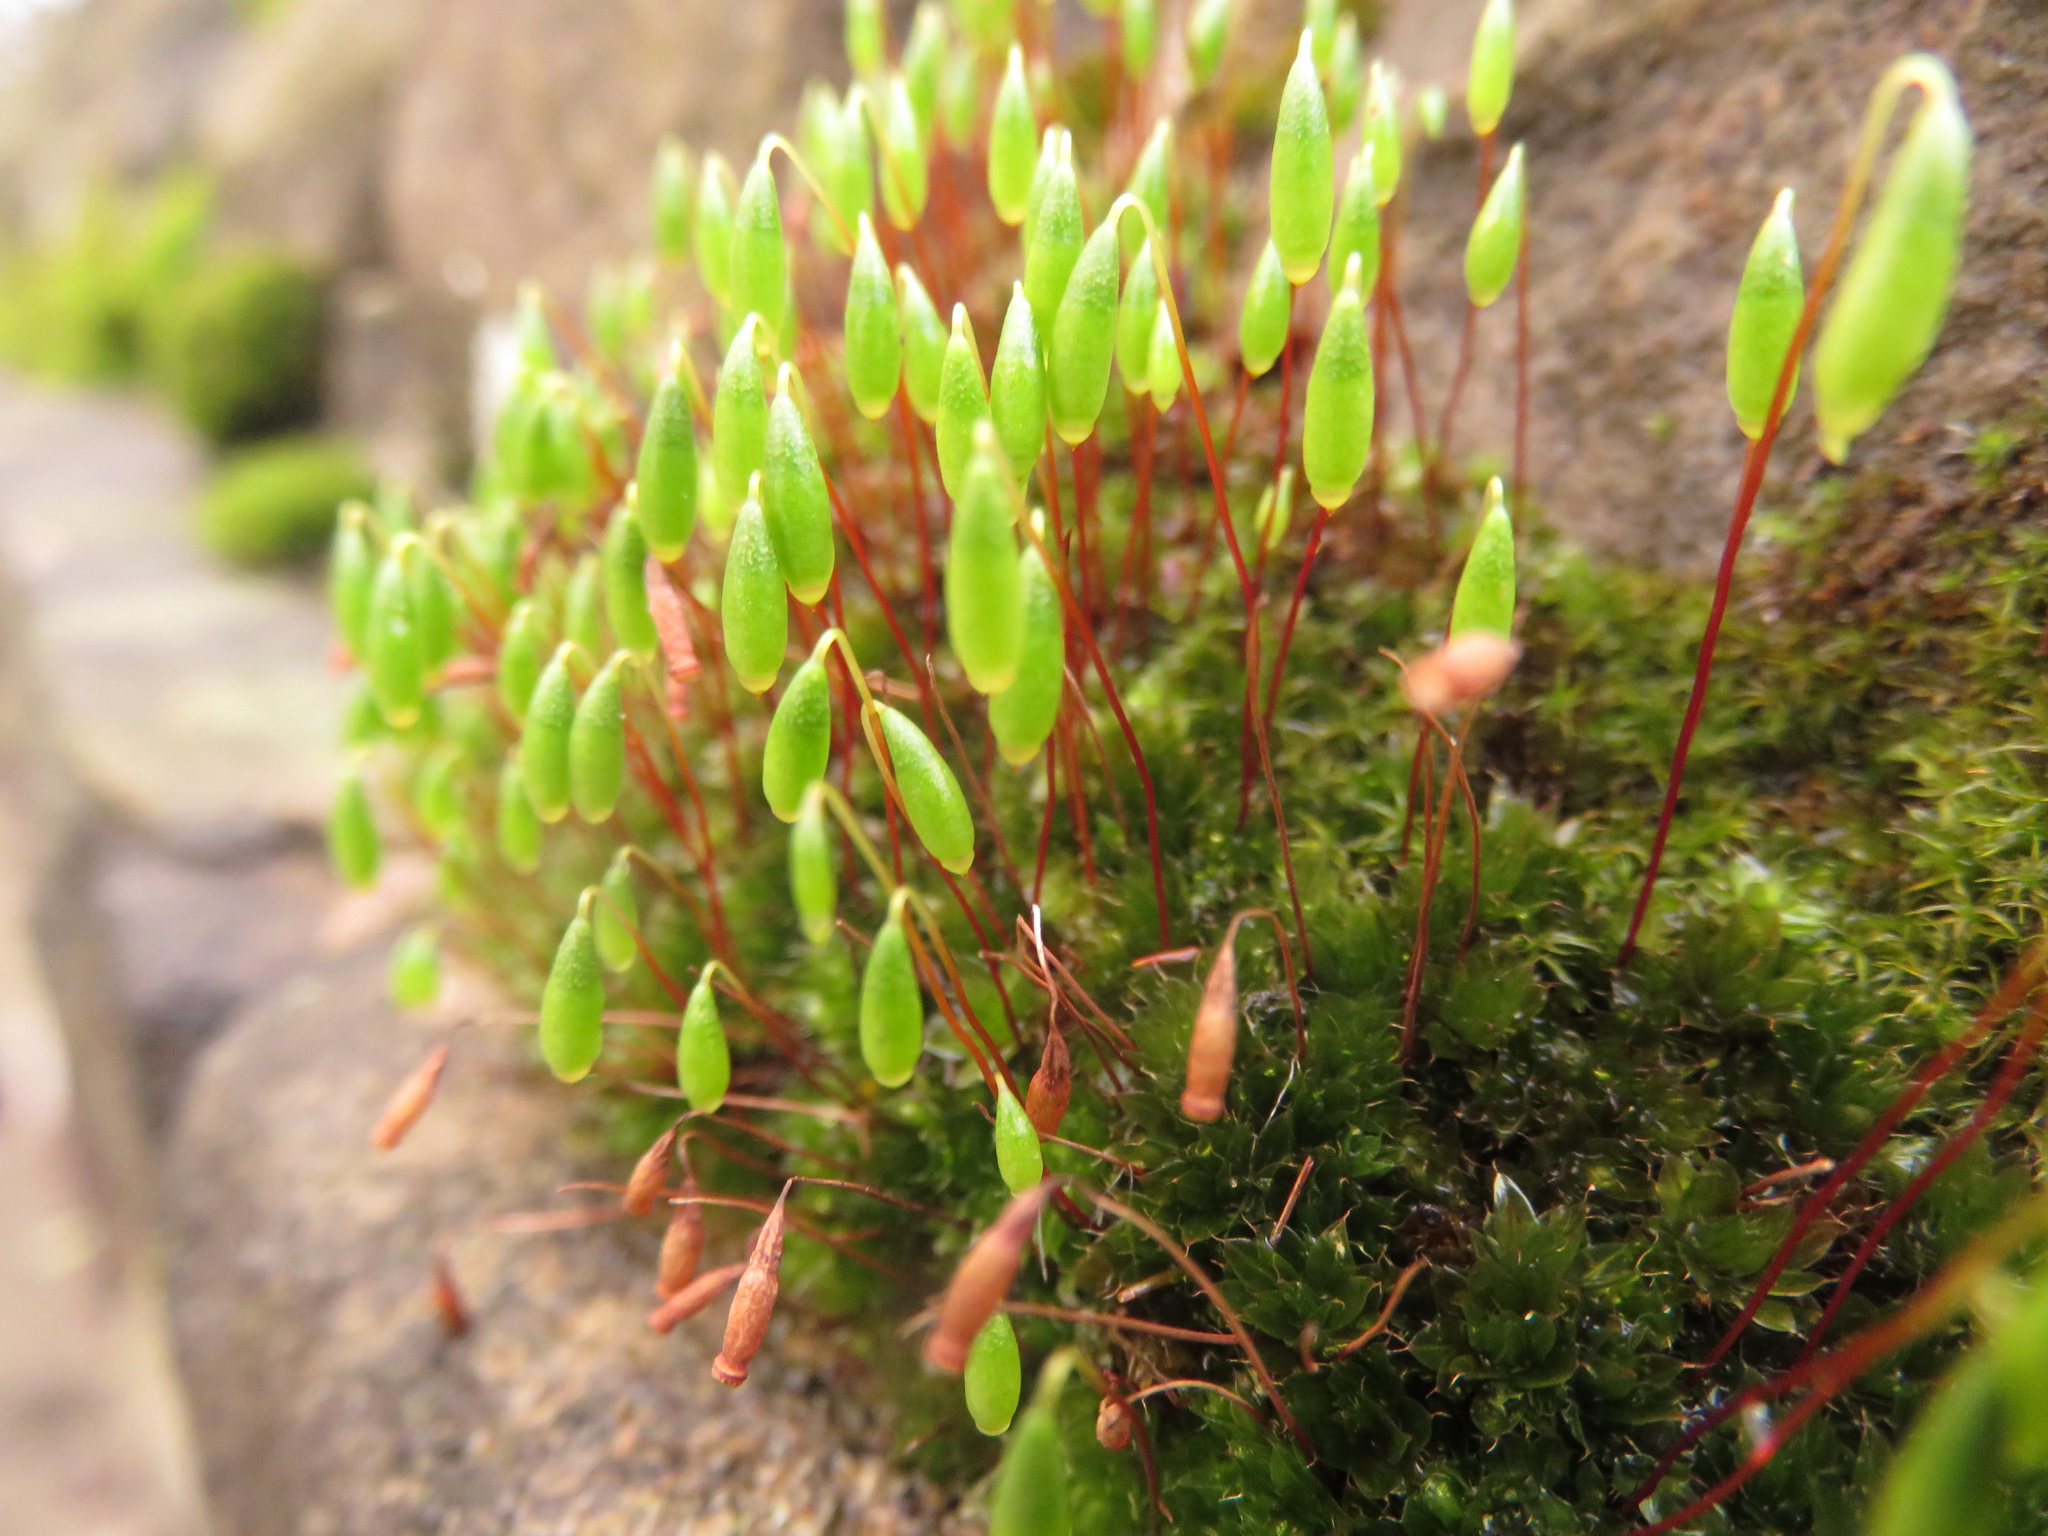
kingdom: Plantae
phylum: Bryophyta
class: Bryopsida
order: Bryales
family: Bryaceae
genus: Rosulabryum
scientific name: Rosulabryum capillare
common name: Capillary thread-moss
